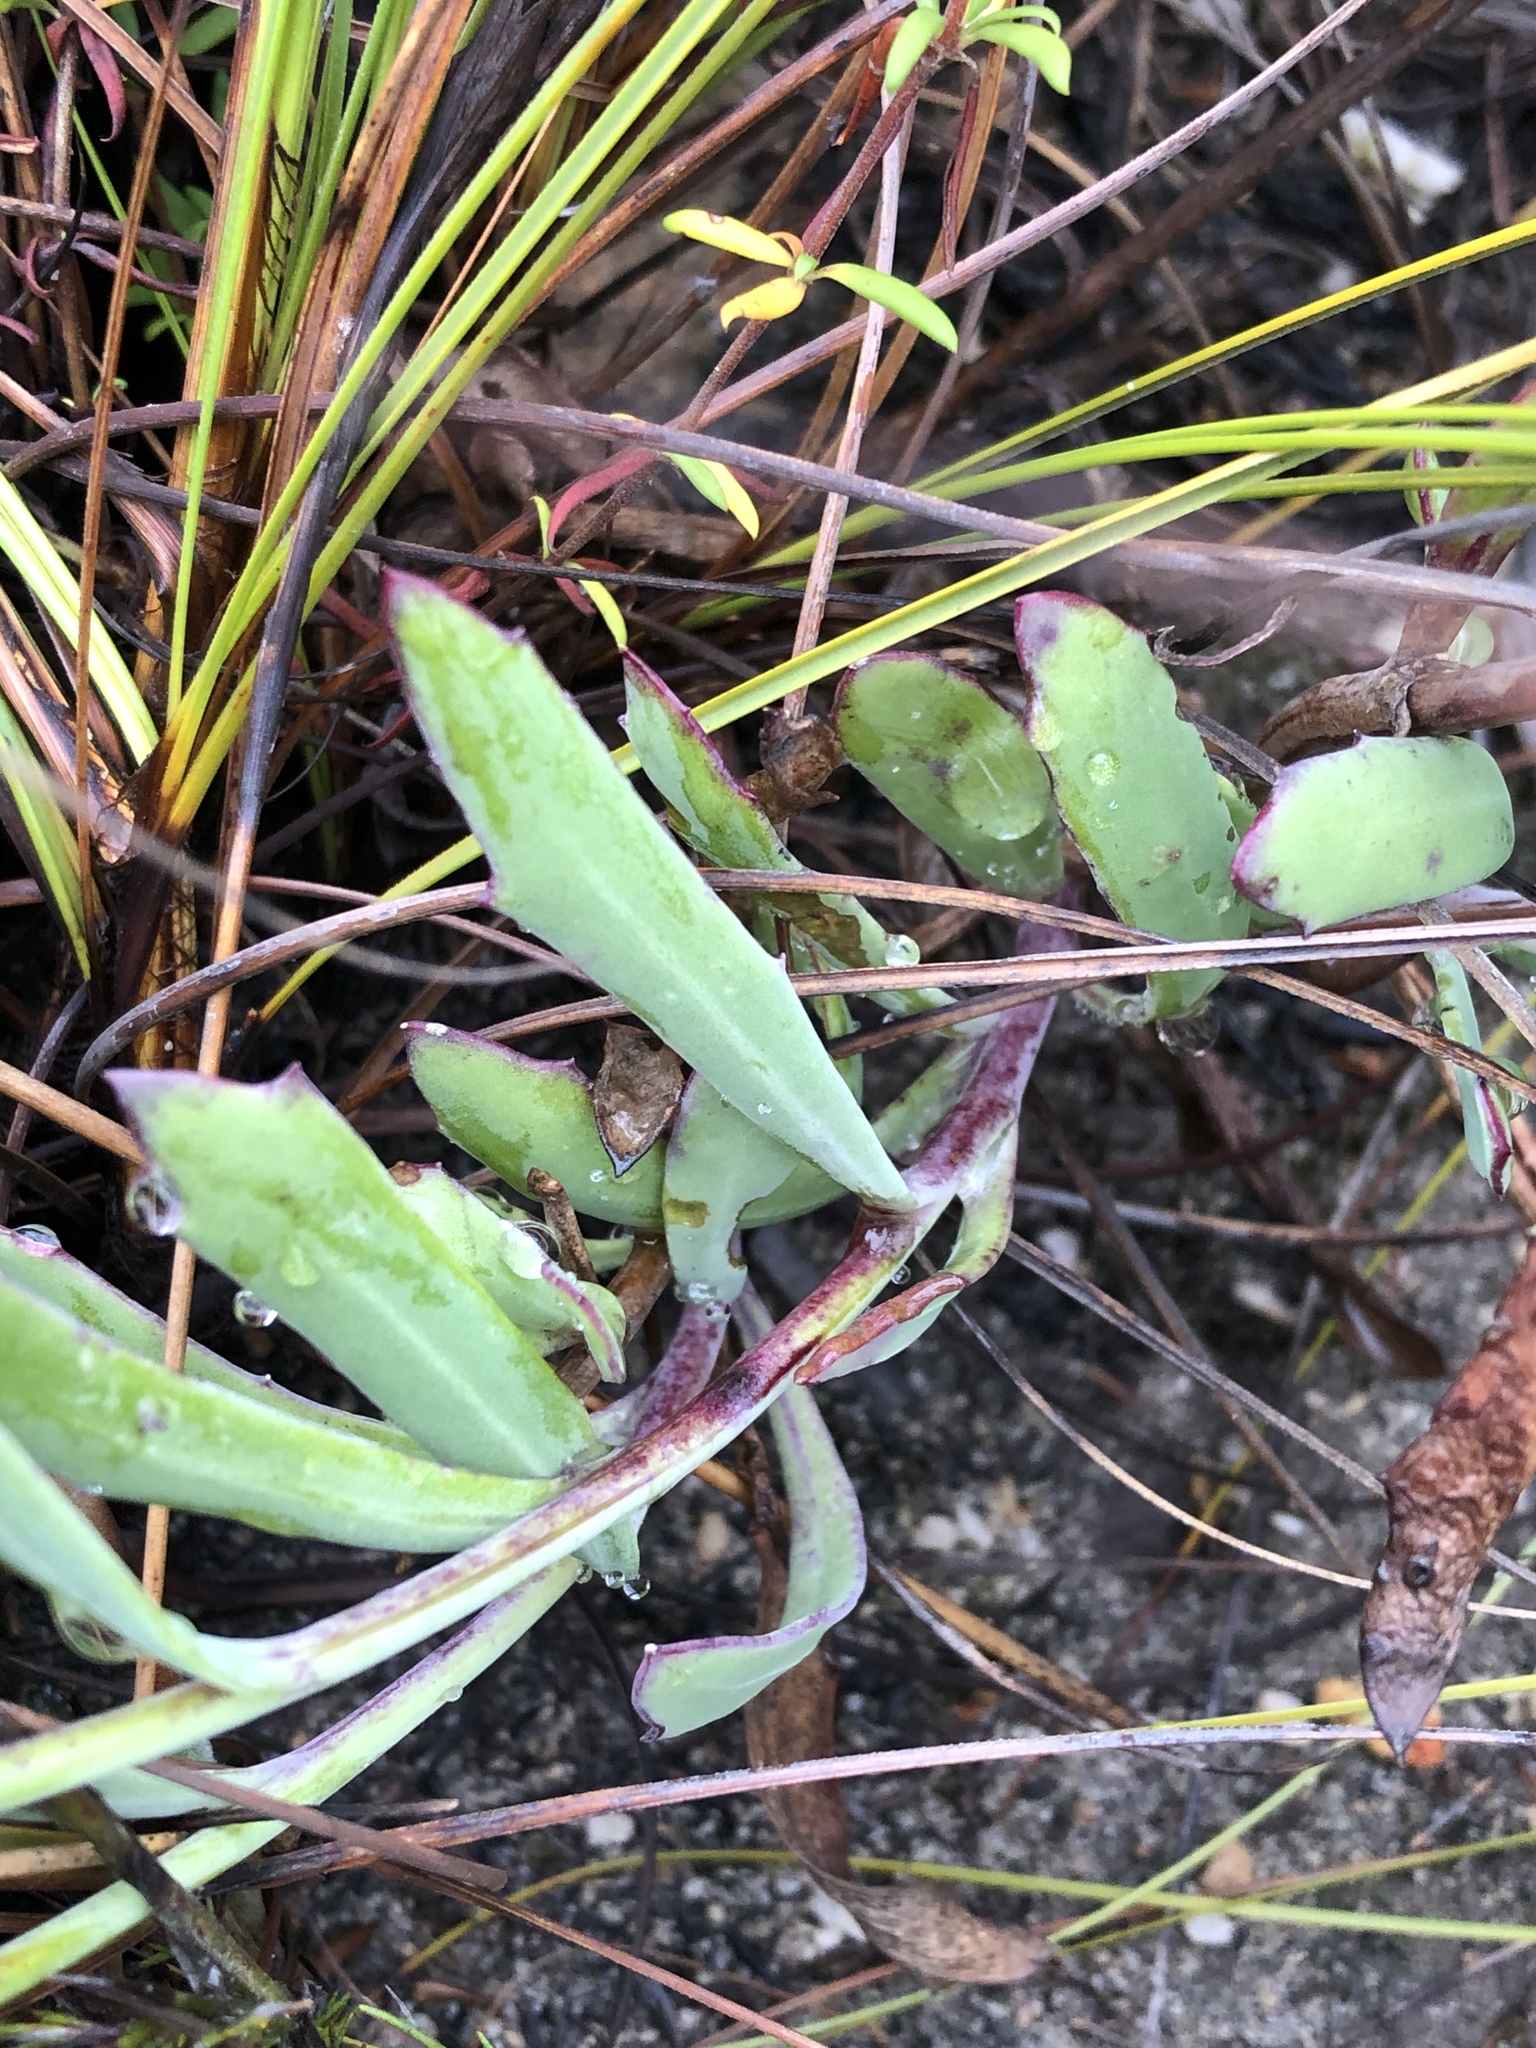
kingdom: Plantae
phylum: Tracheophyta
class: Magnoliopsida
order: Asterales
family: Asteraceae
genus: Othonna
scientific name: Othonna quinquedentata
